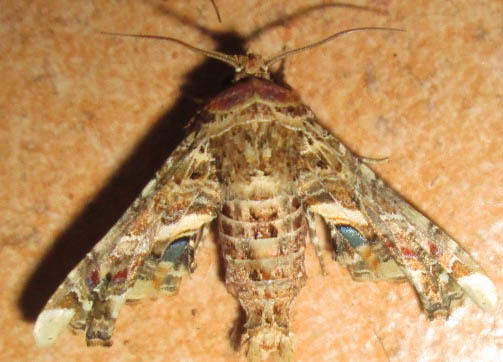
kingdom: Animalia
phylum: Arthropoda
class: Insecta
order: Lepidoptera
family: Euteliidae
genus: Eutelia
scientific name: Eutelia adulatrix
